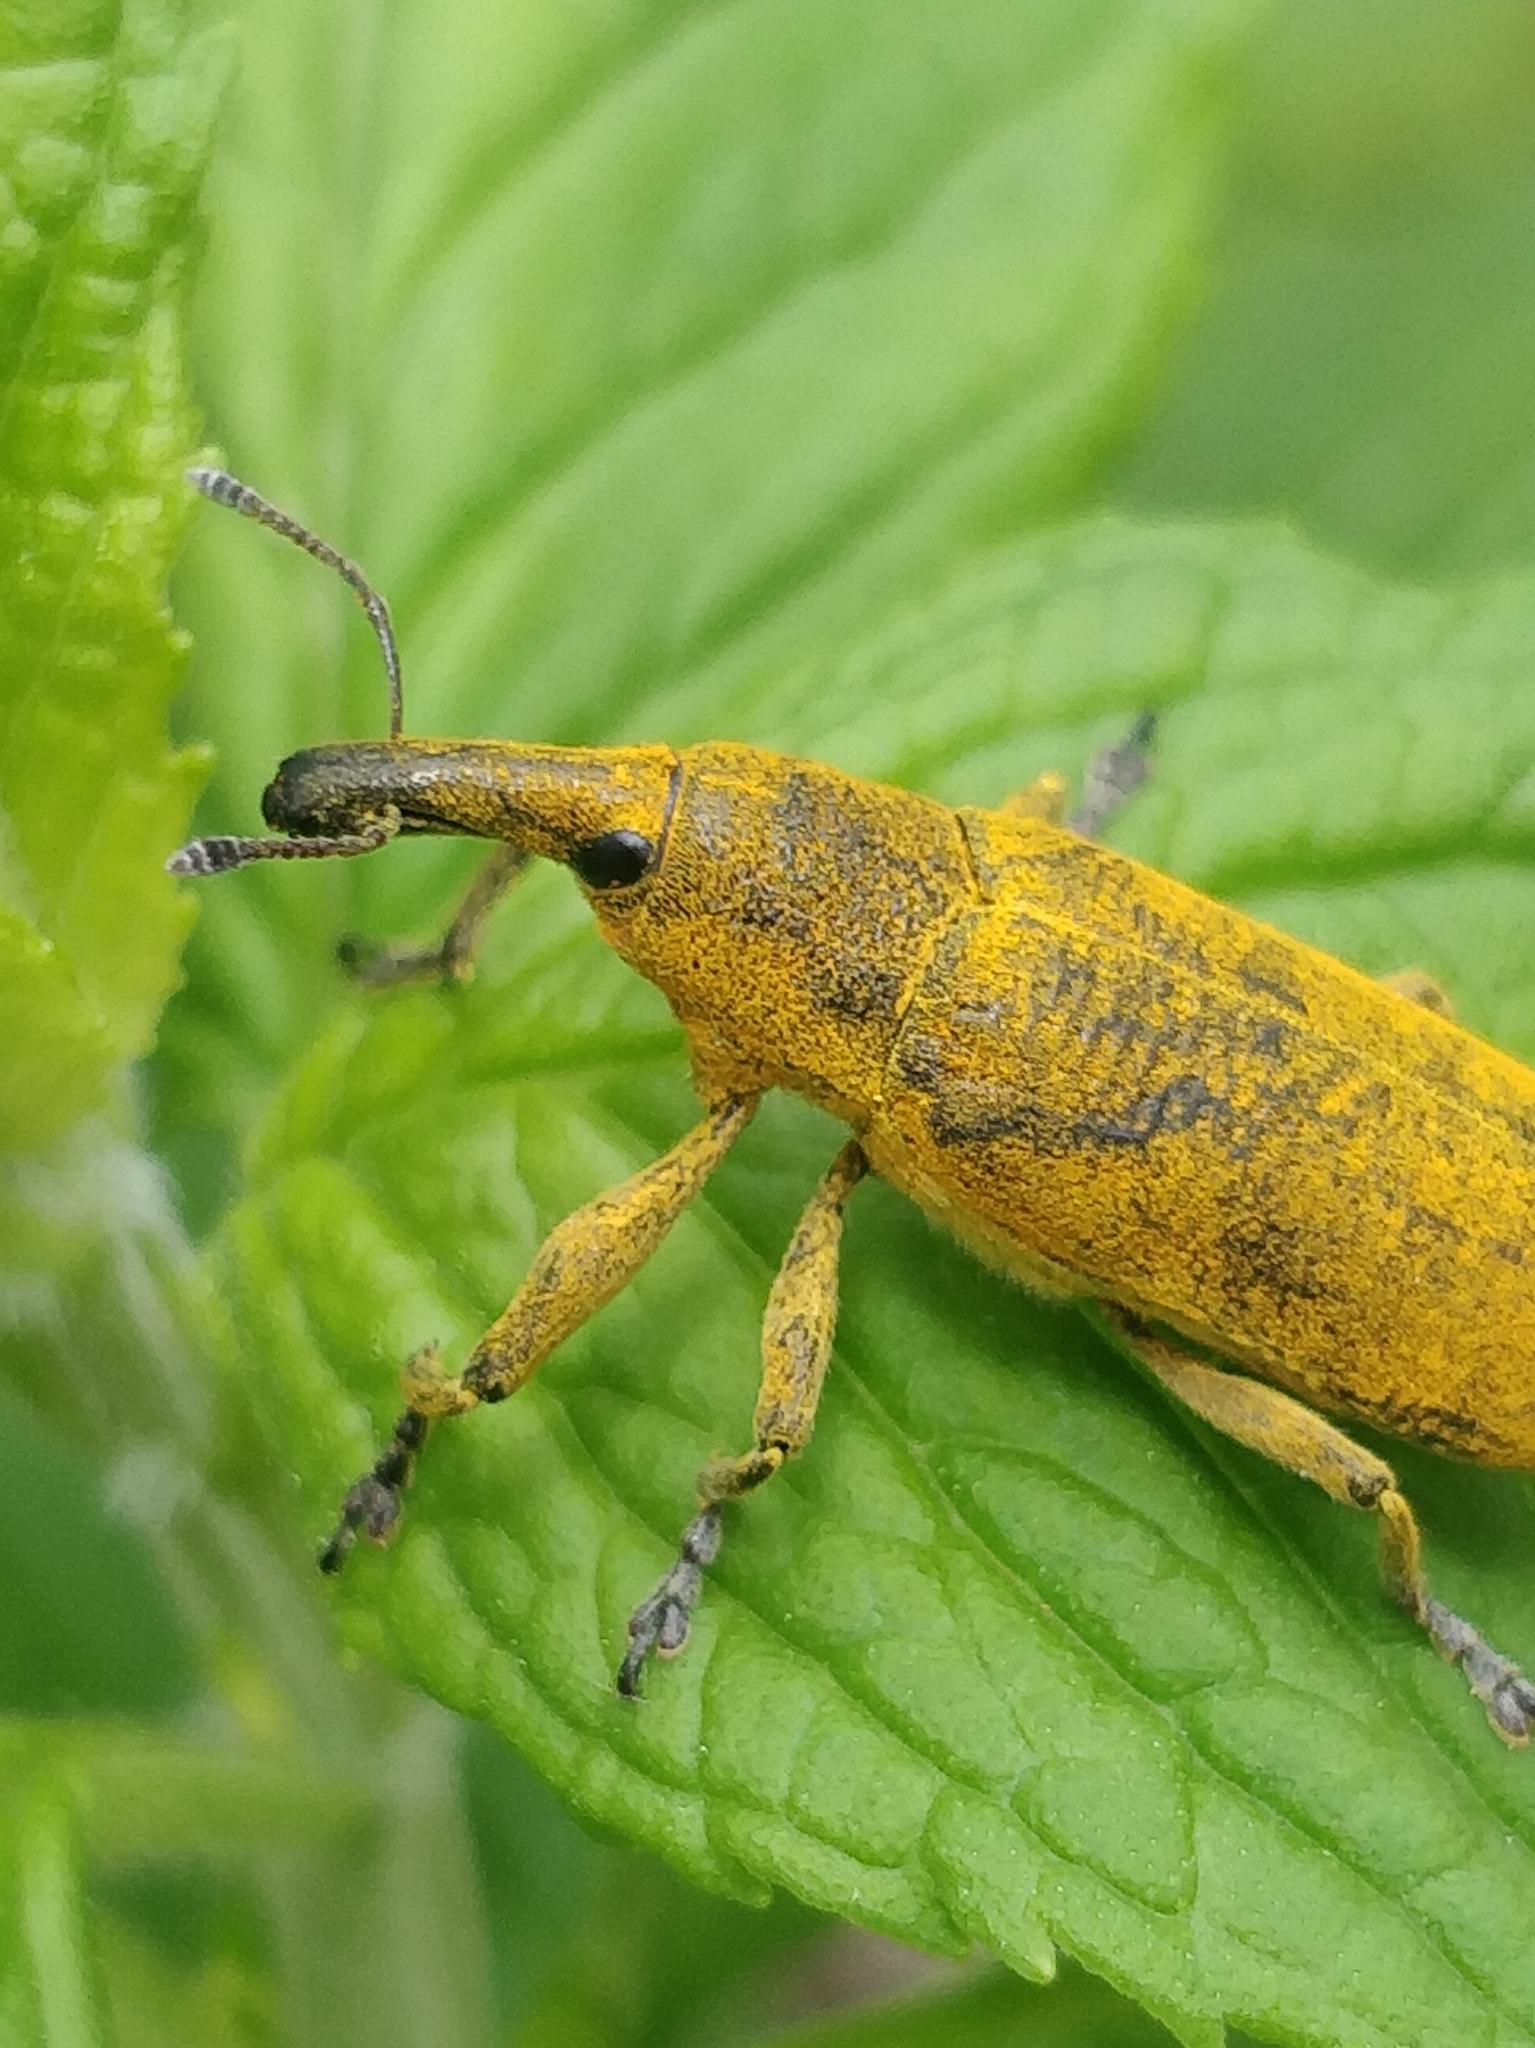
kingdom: Animalia
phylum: Arthropoda
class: Insecta
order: Coleoptera
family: Curculionidae
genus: Lixus
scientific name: Lixus pulverulentus
